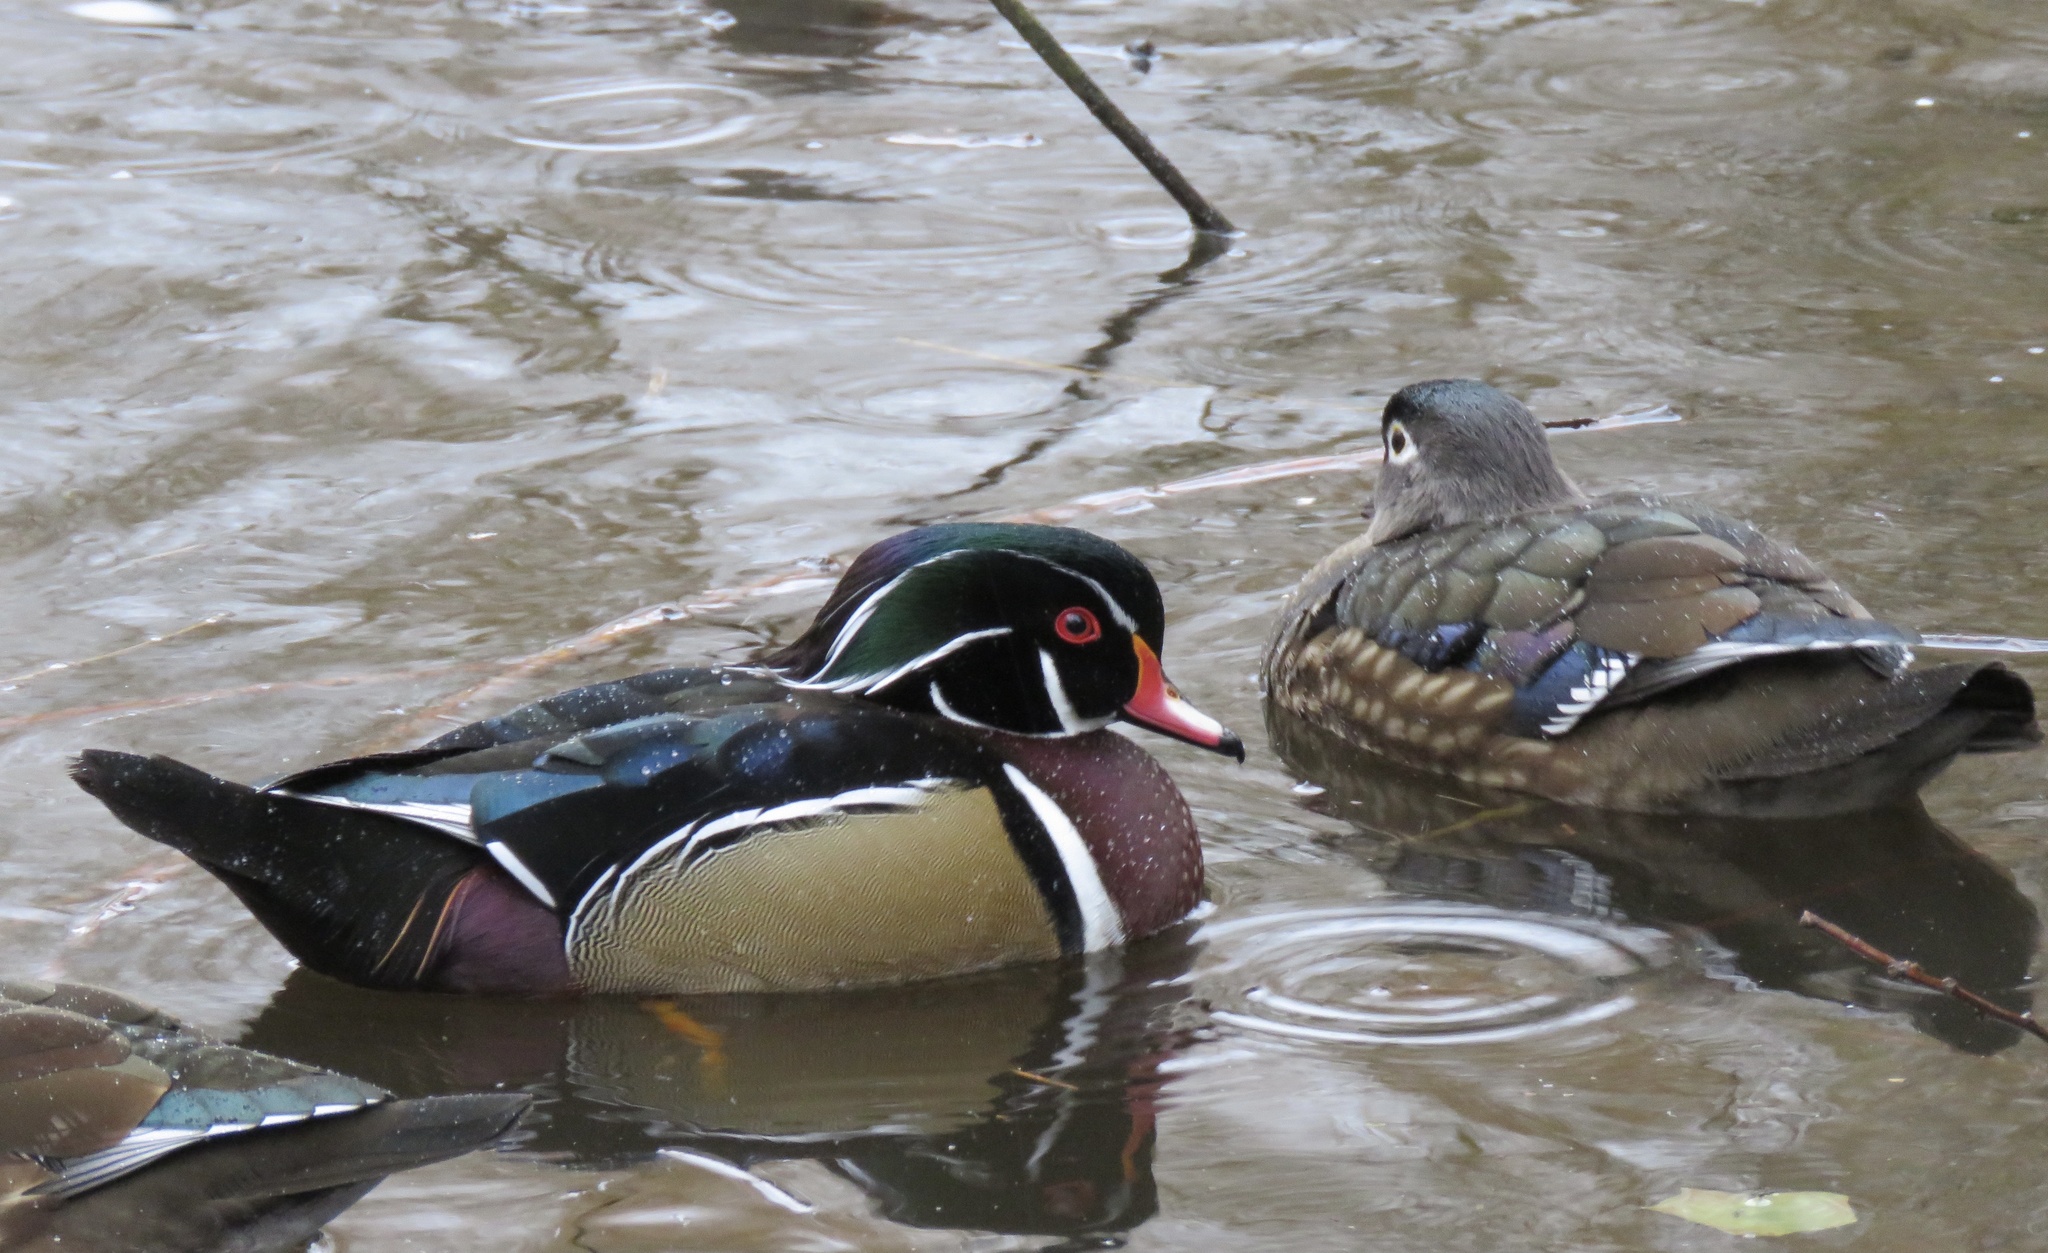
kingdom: Animalia
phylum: Chordata
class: Aves
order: Anseriformes
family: Anatidae
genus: Aix
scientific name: Aix sponsa
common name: Wood duck
